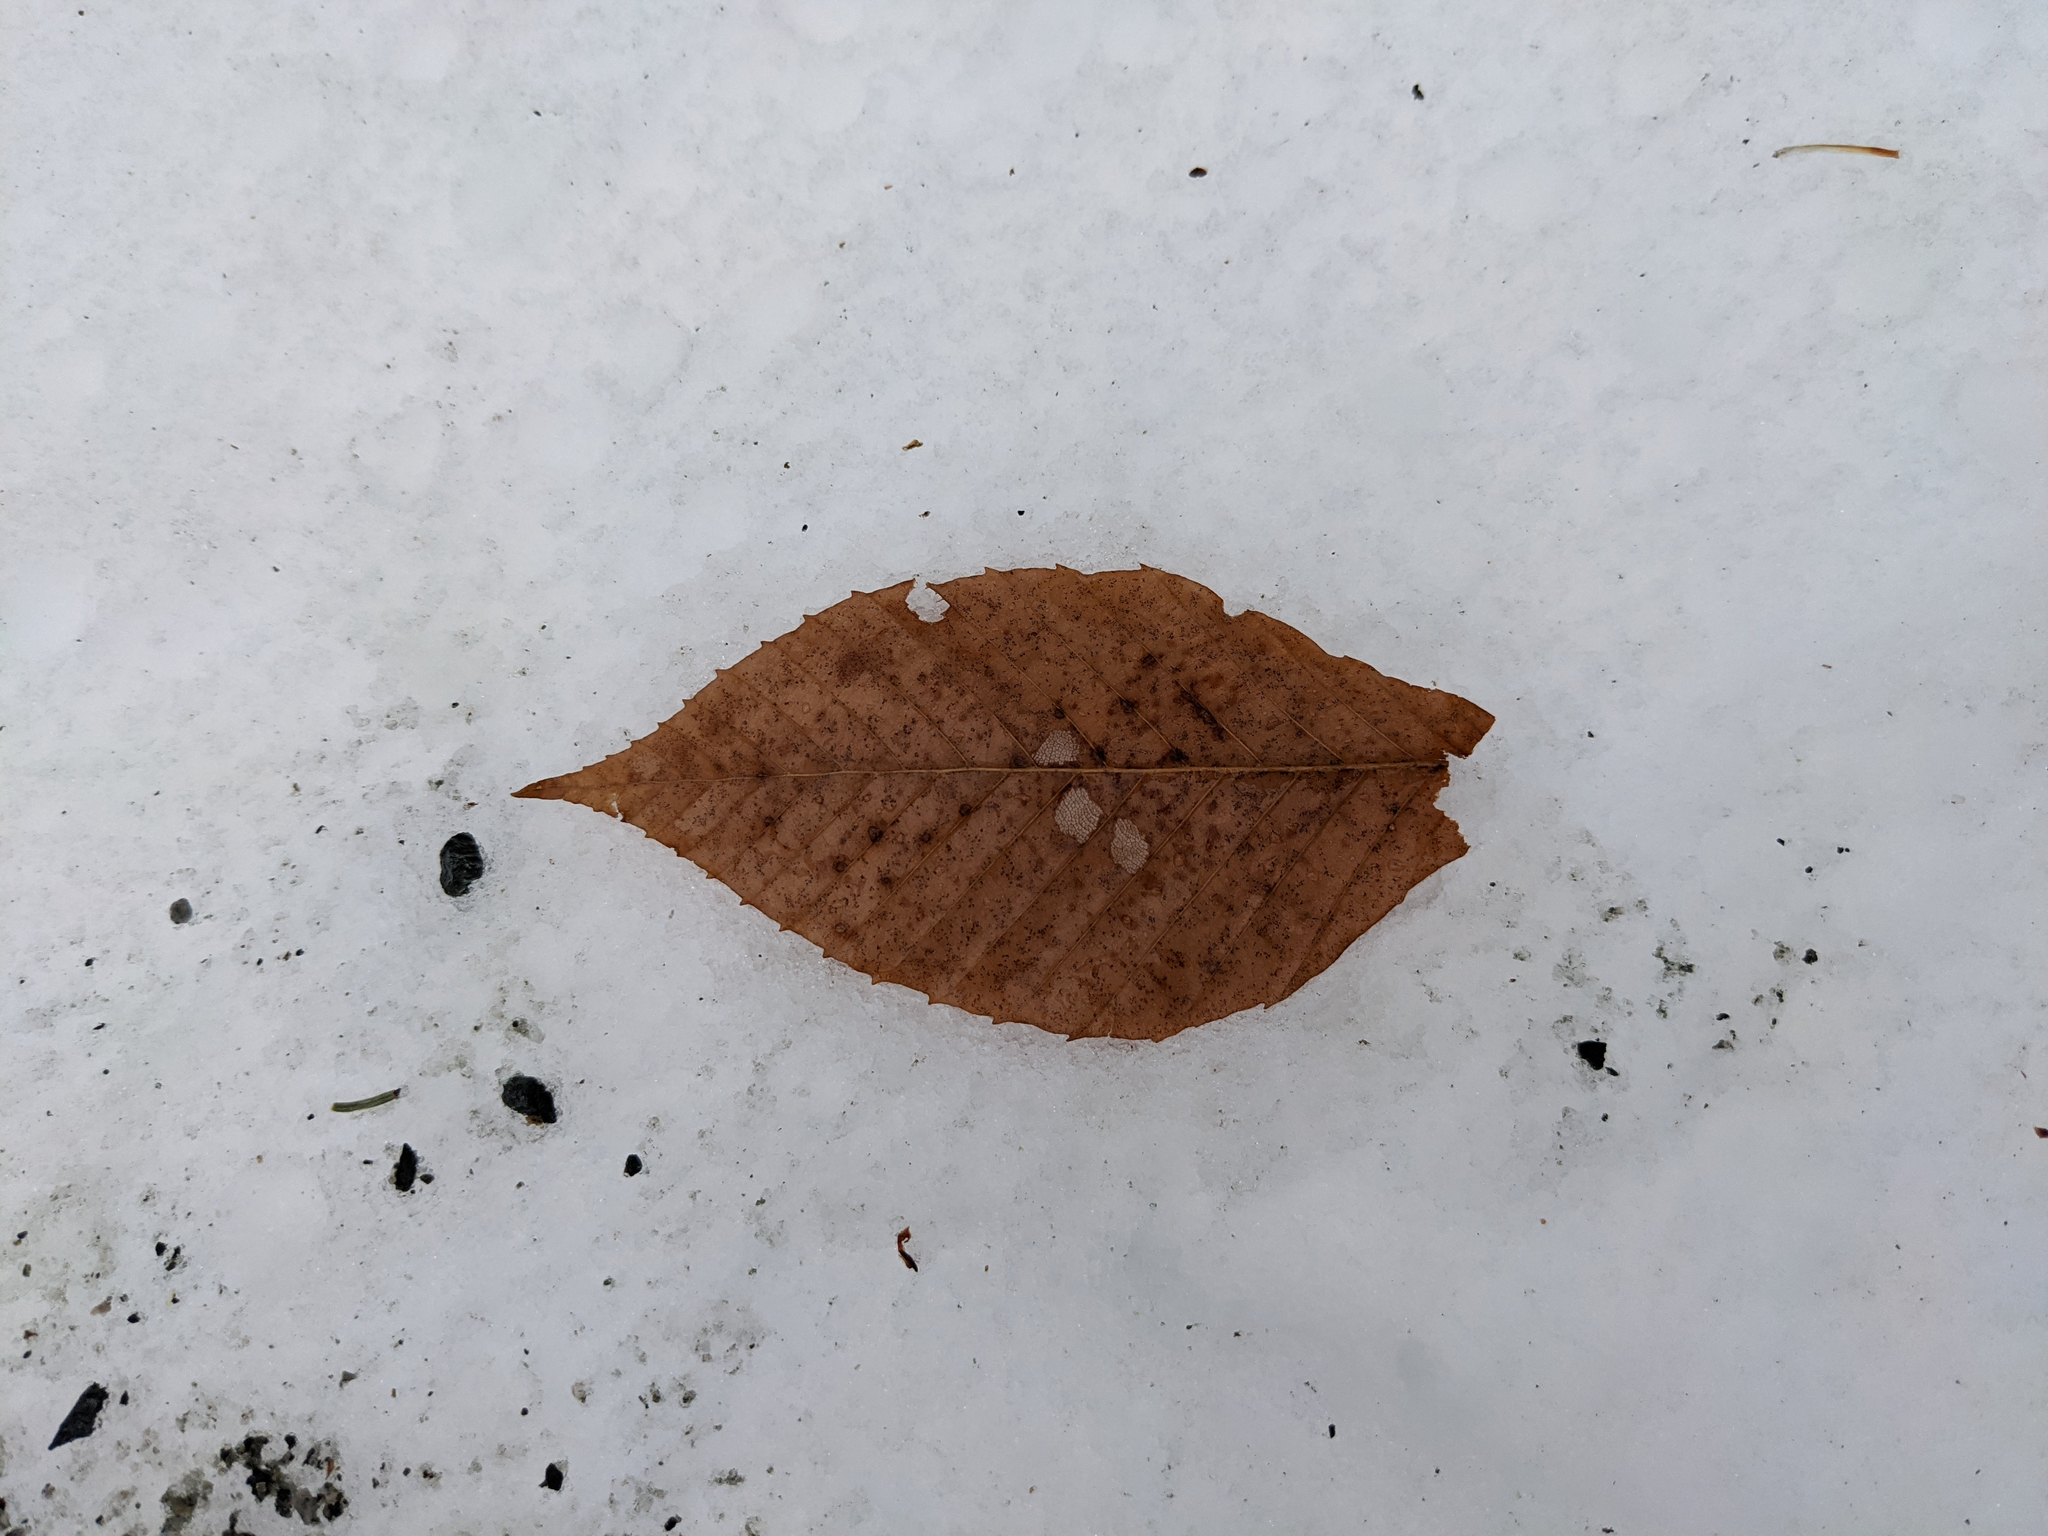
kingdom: Plantae
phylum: Tracheophyta
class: Magnoliopsida
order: Fagales
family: Fagaceae
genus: Fagus
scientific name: Fagus grandifolia
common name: American beech
